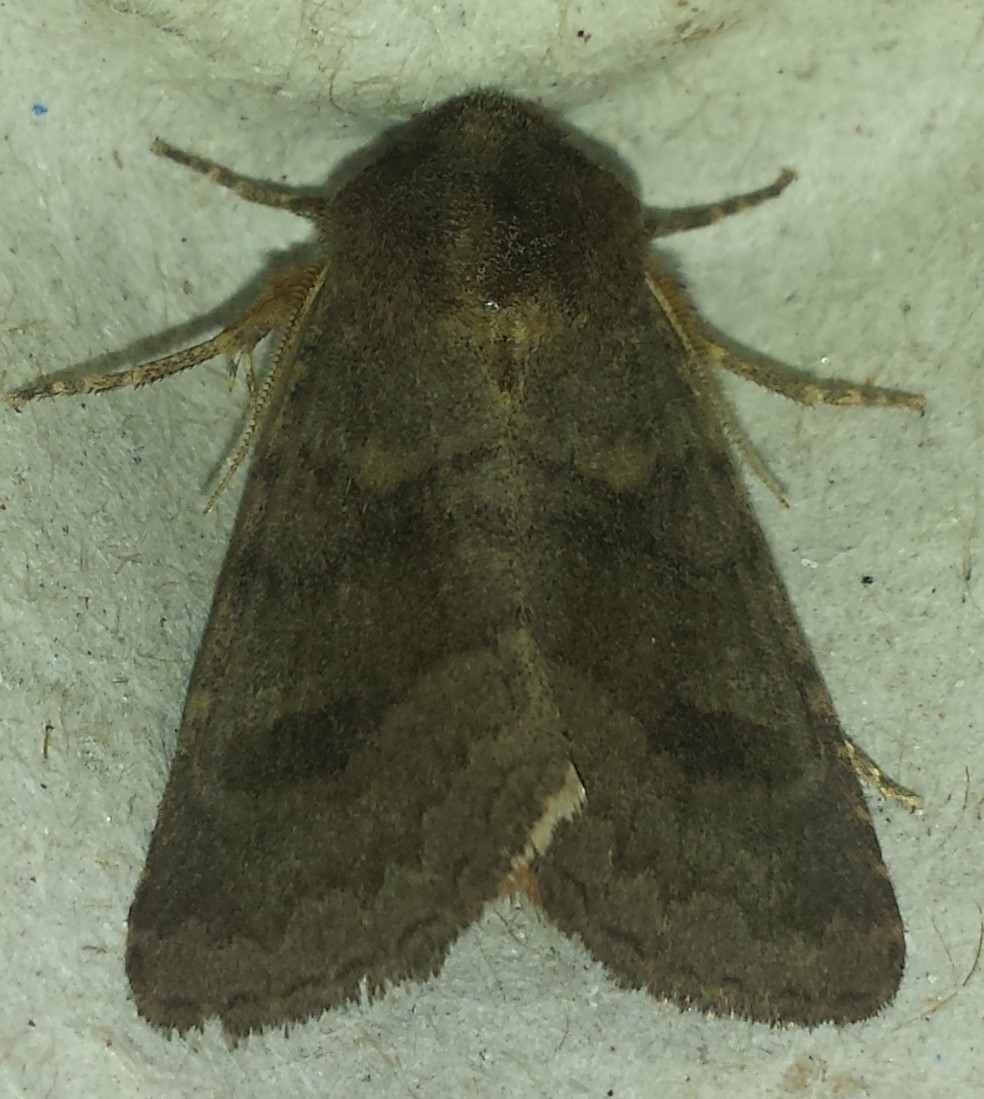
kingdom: Animalia
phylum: Arthropoda
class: Insecta
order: Lepidoptera
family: Noctuidae
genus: Nephelodes
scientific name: Nephelodes minians
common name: Bronzed cutworm
